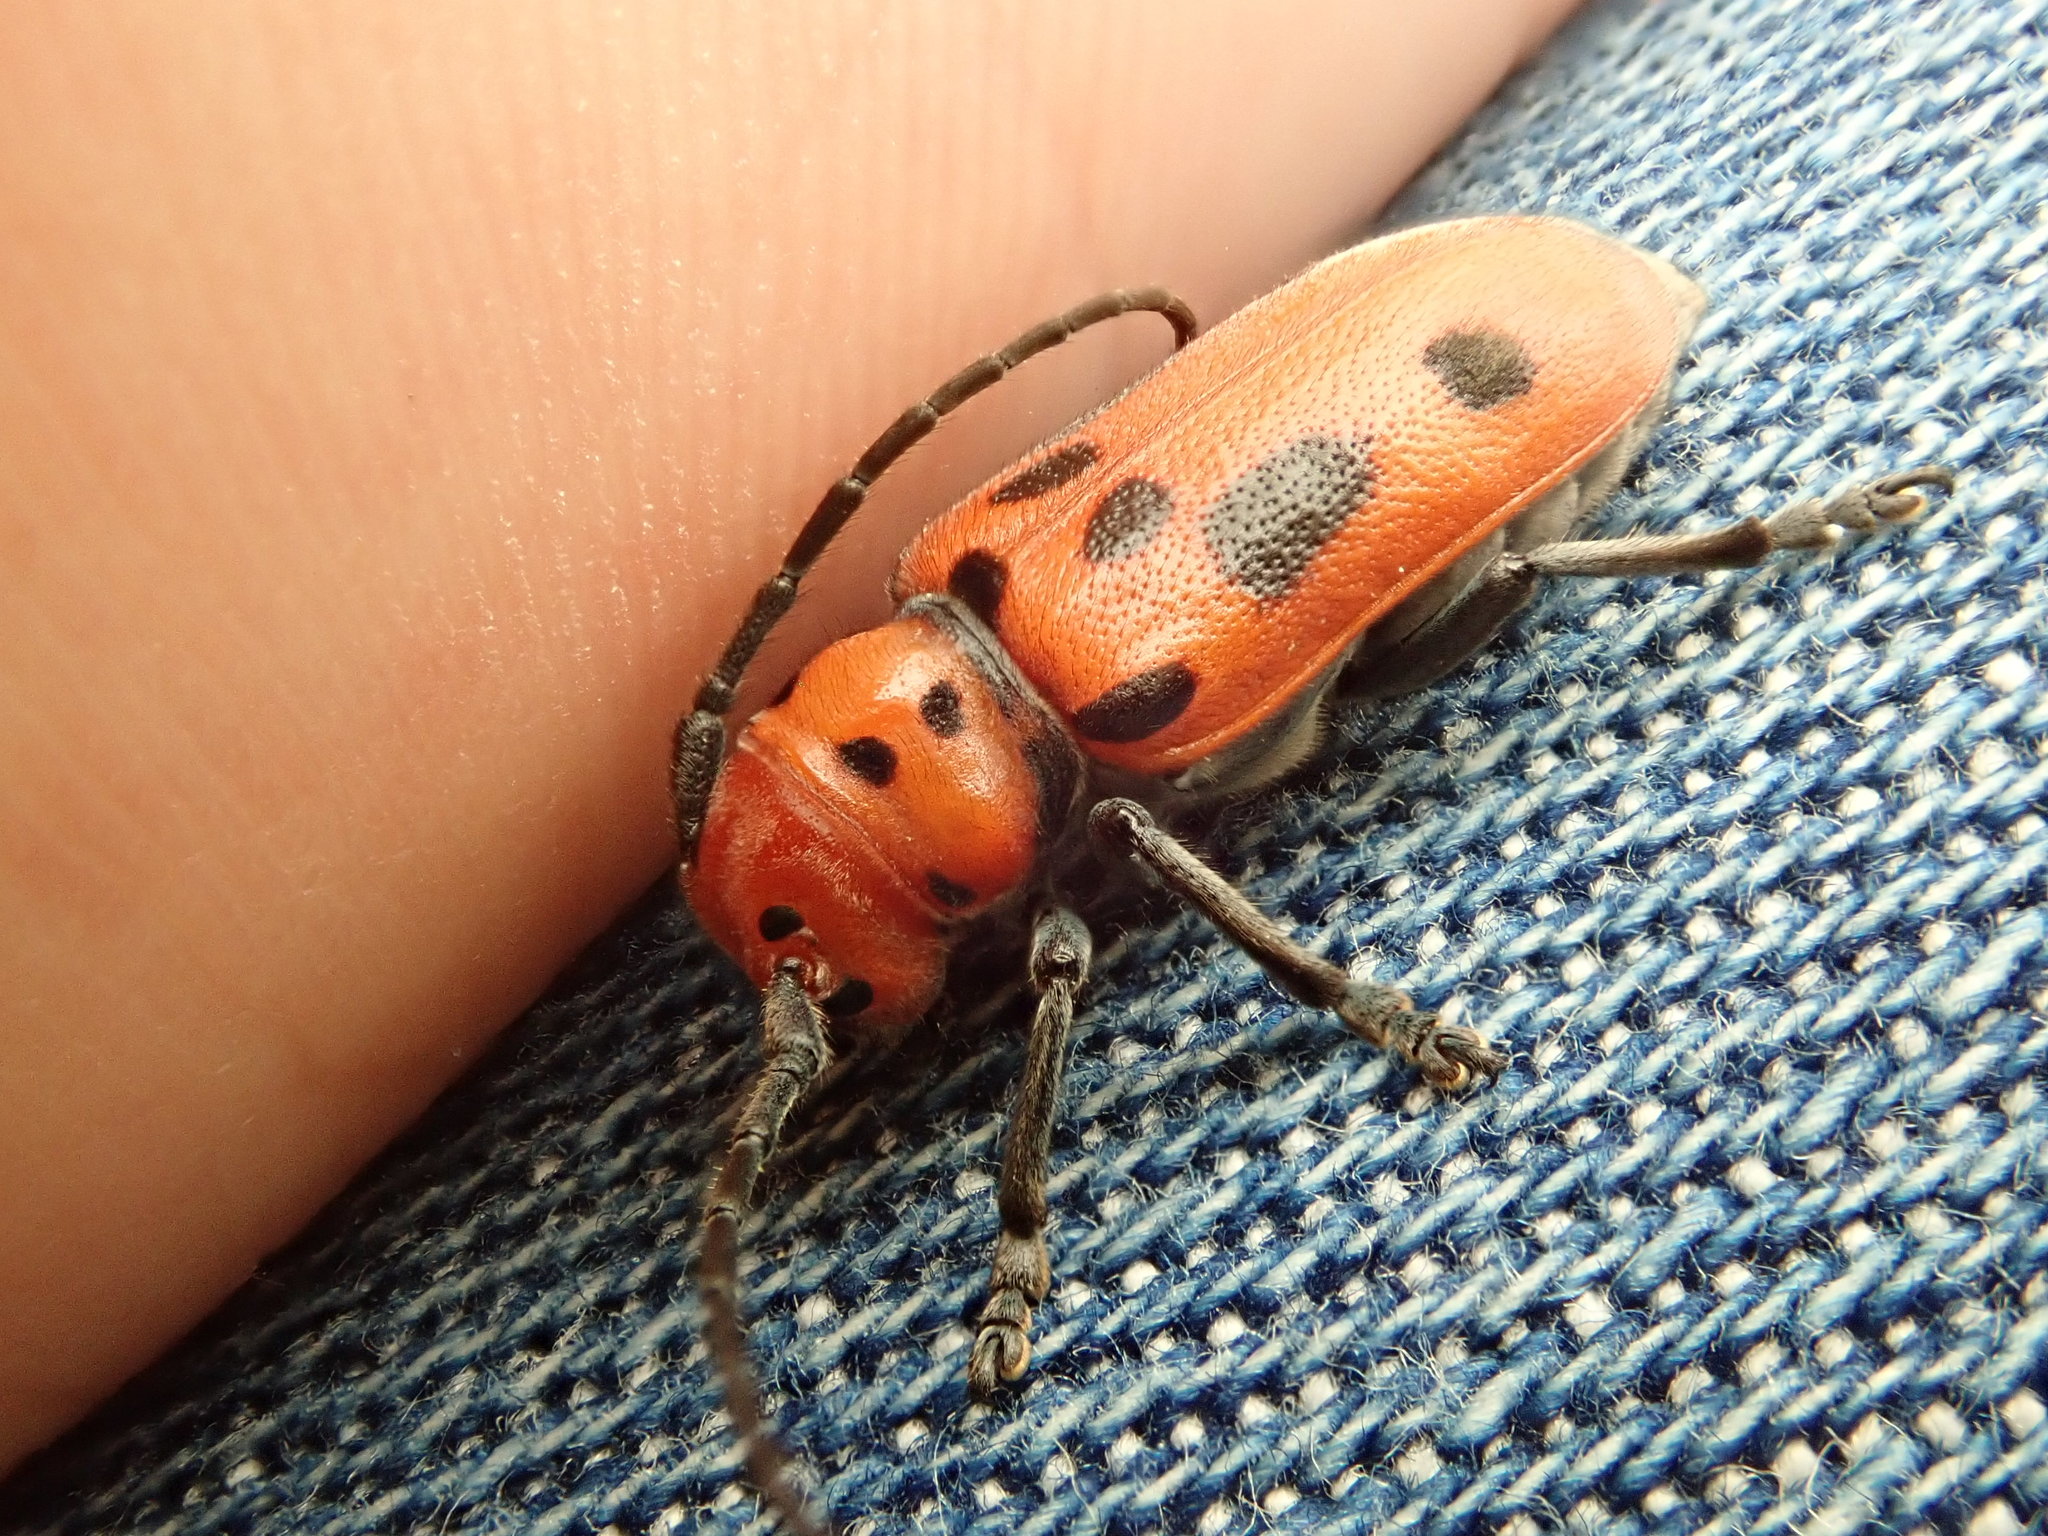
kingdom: Animalia
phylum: Arthropoda
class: Insecta
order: Coleoptera
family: Cerambycidae
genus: Tetraopes
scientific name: Tetraopes tetrophthalmus
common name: Red milkweed beetle
